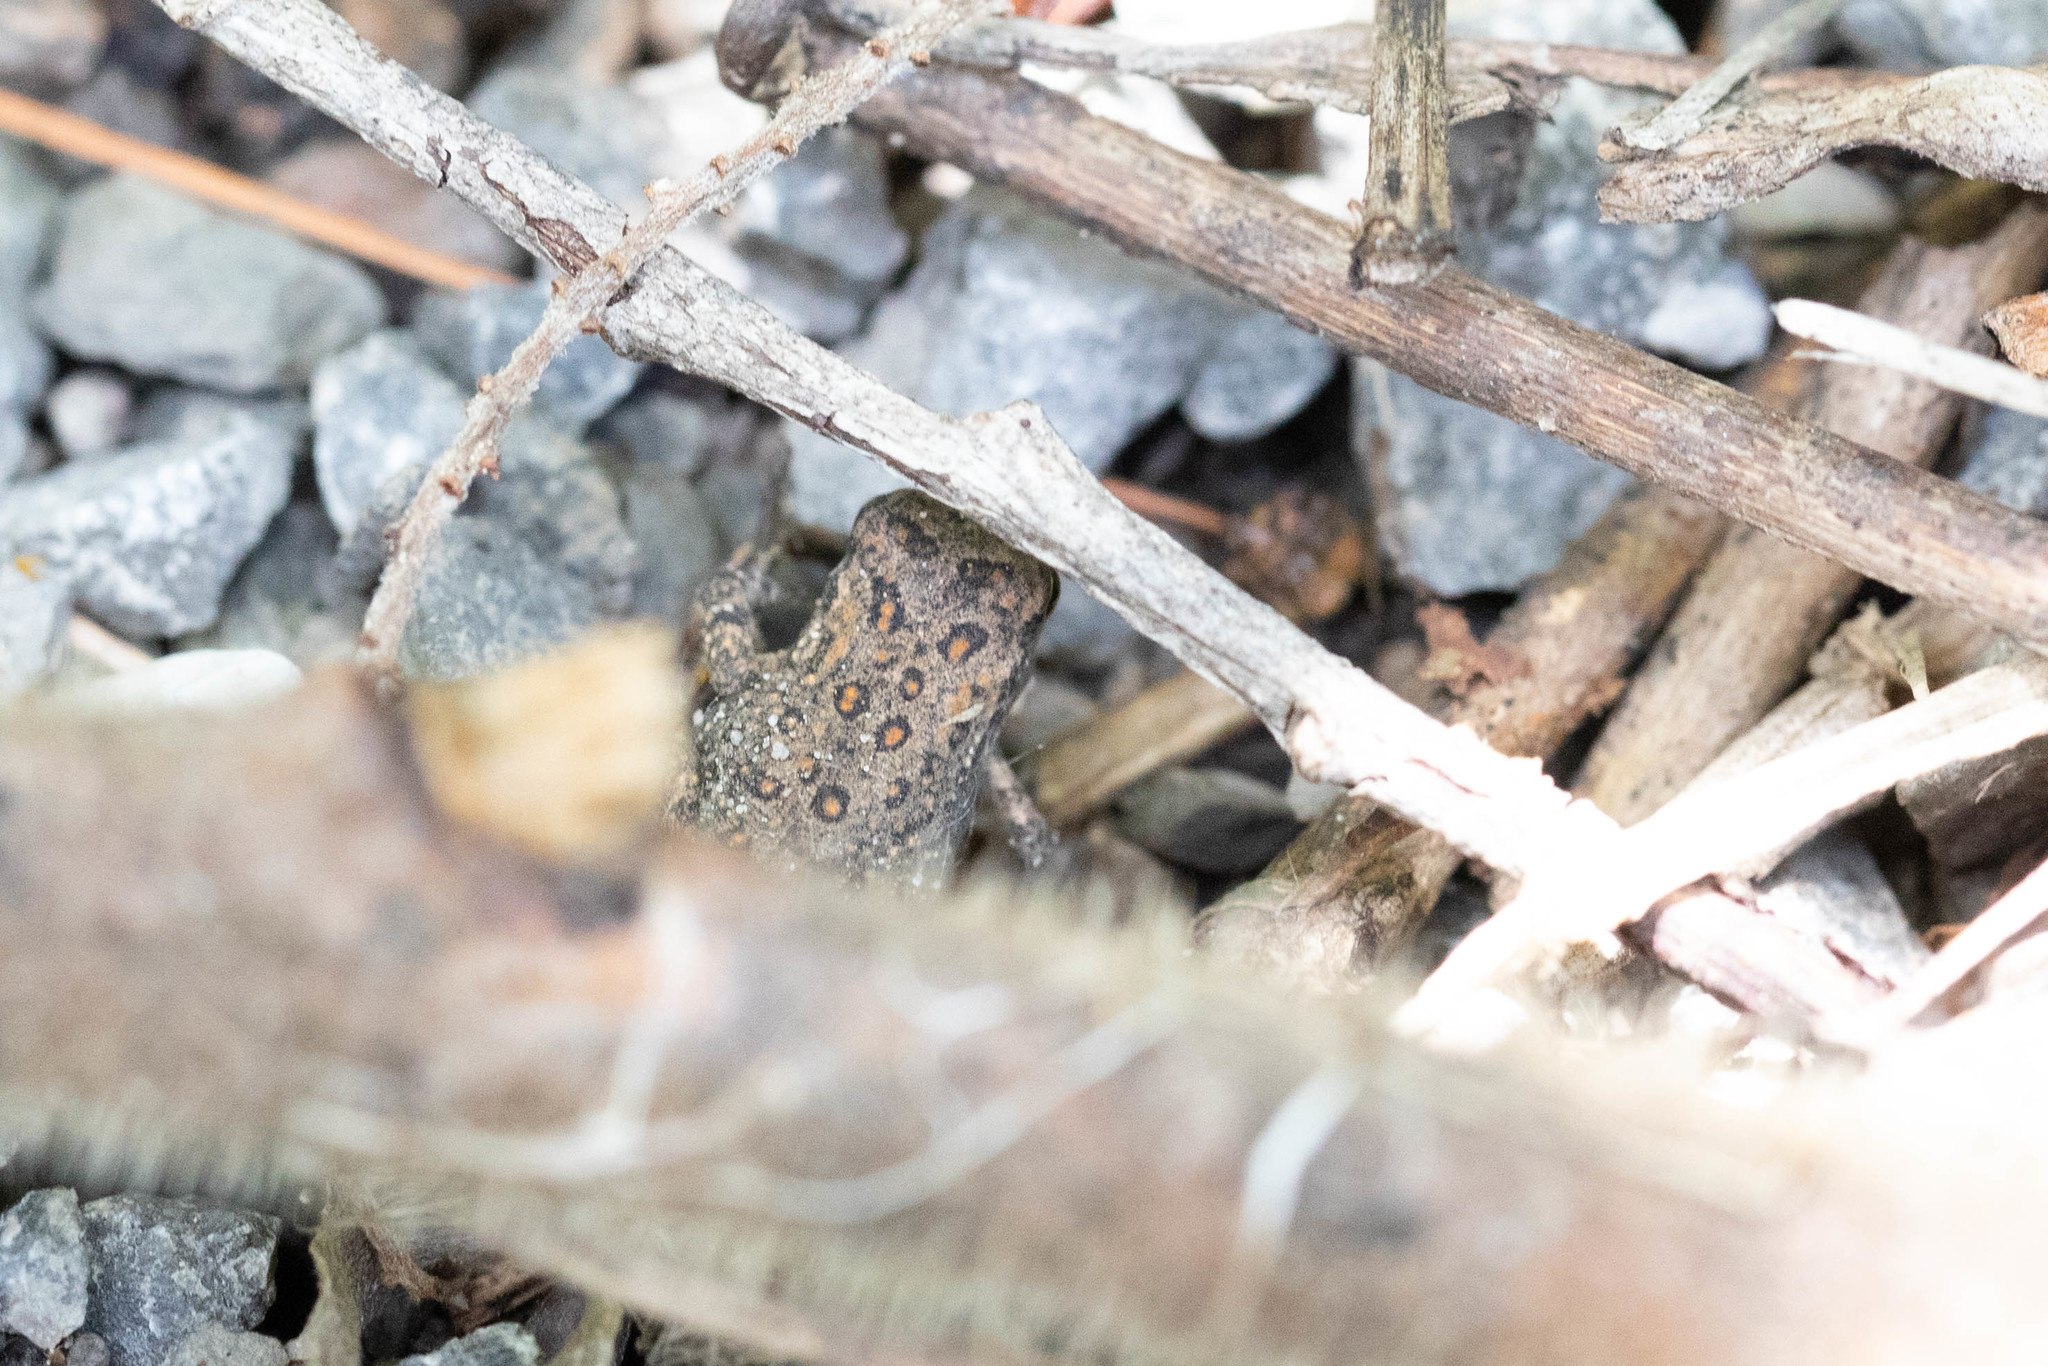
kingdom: Animalia
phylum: Chordata
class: Amphibia
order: Anura
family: Bufonidae
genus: Anaxyrus
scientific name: Anaxyrus americanus
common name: American toad
